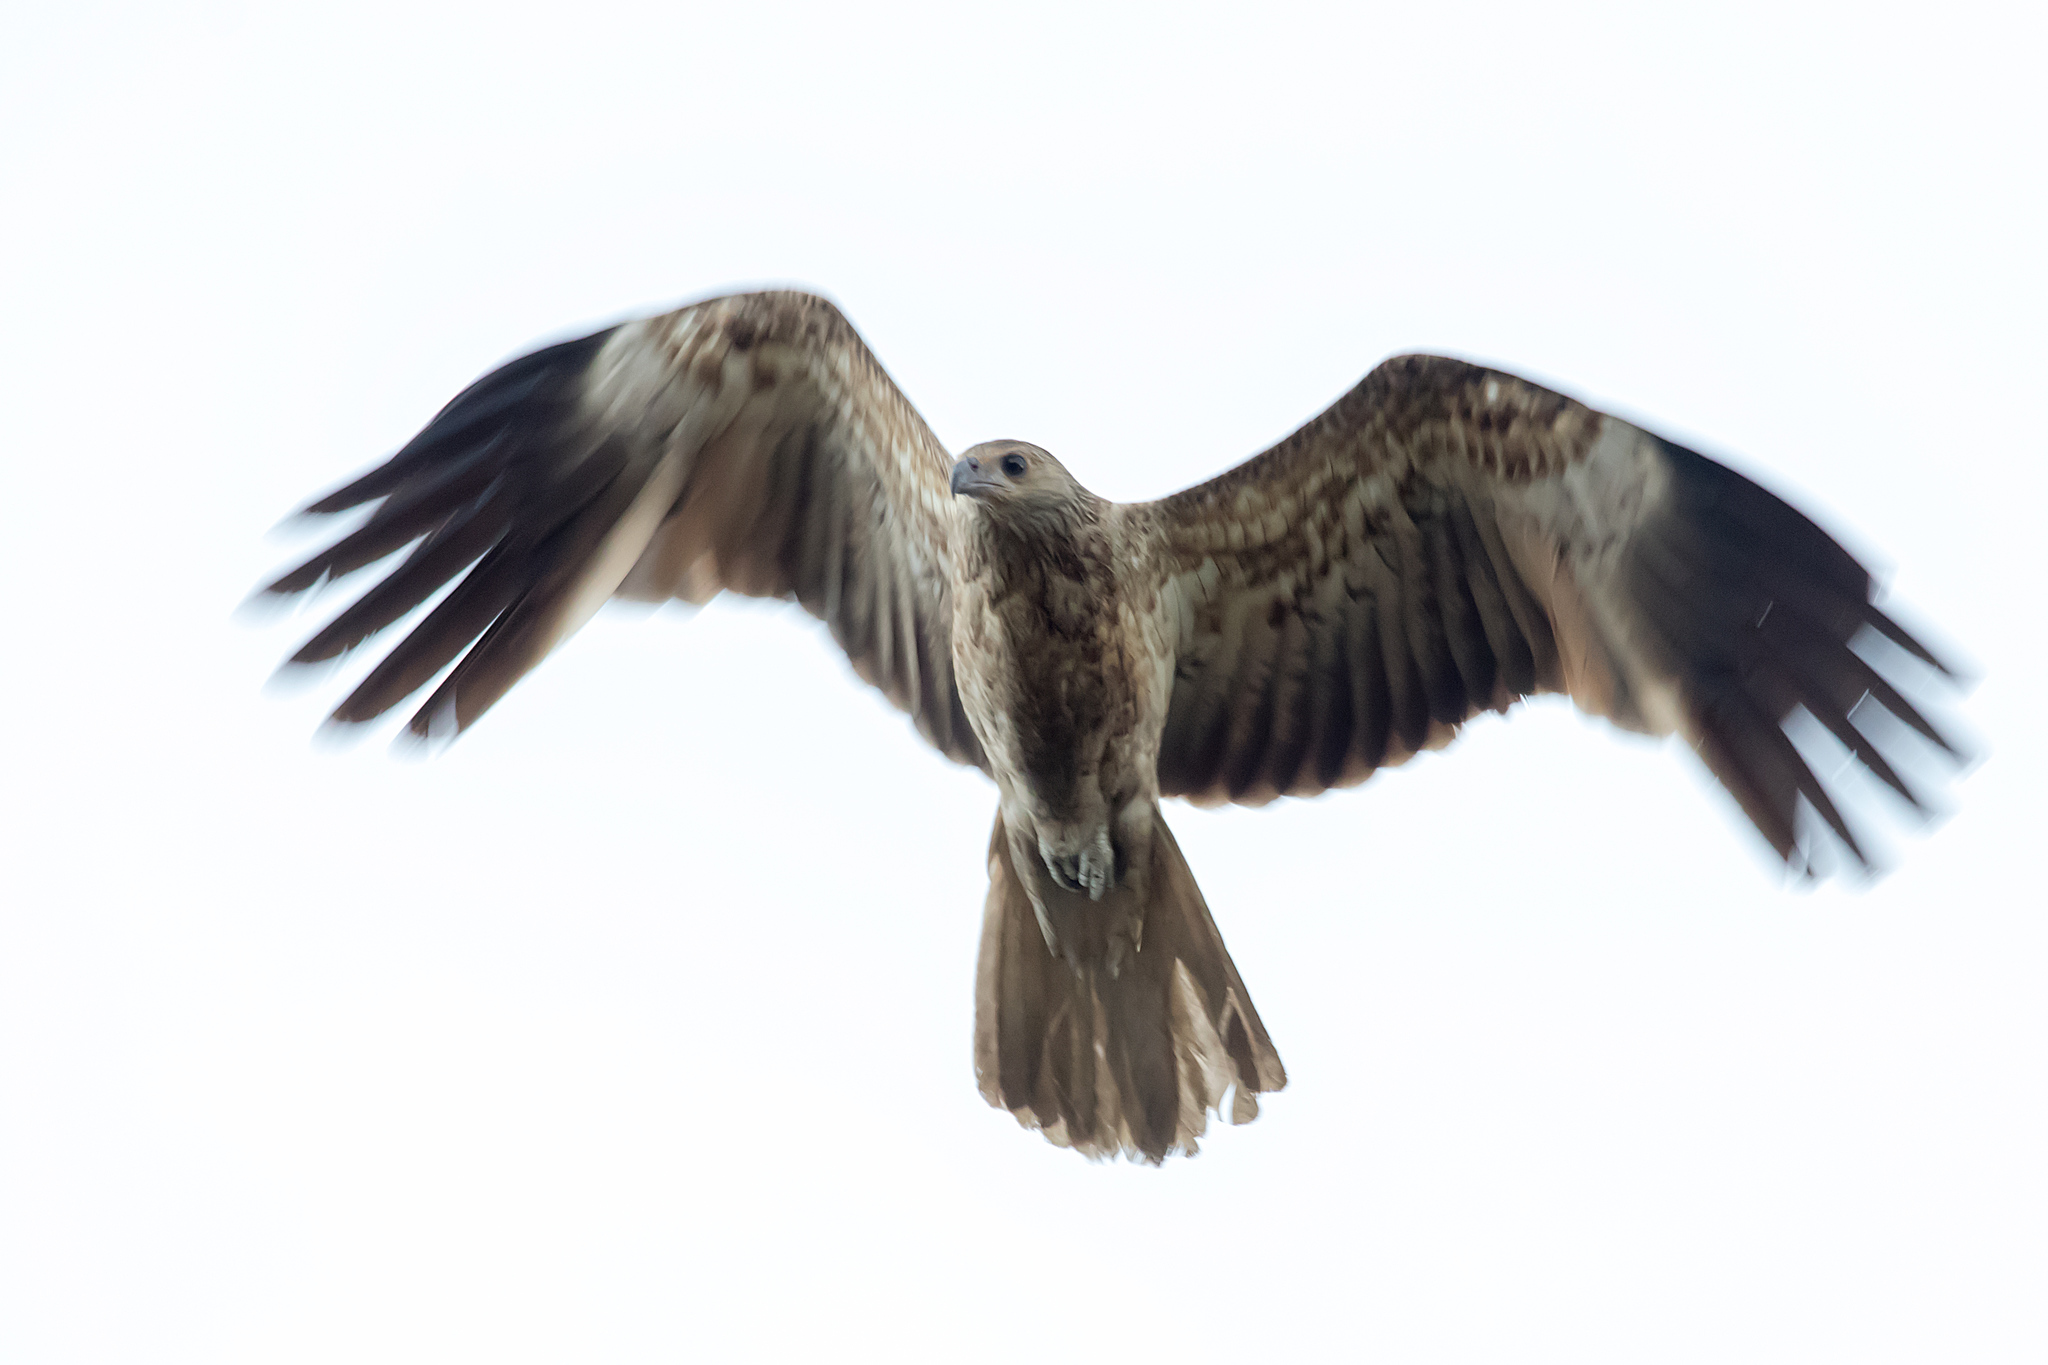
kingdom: Animalia
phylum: Chordata
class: Aves
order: Accipitriformes
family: Accipitridae
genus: Haliastur
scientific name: Haliastur sphenurus
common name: Whistling kite
